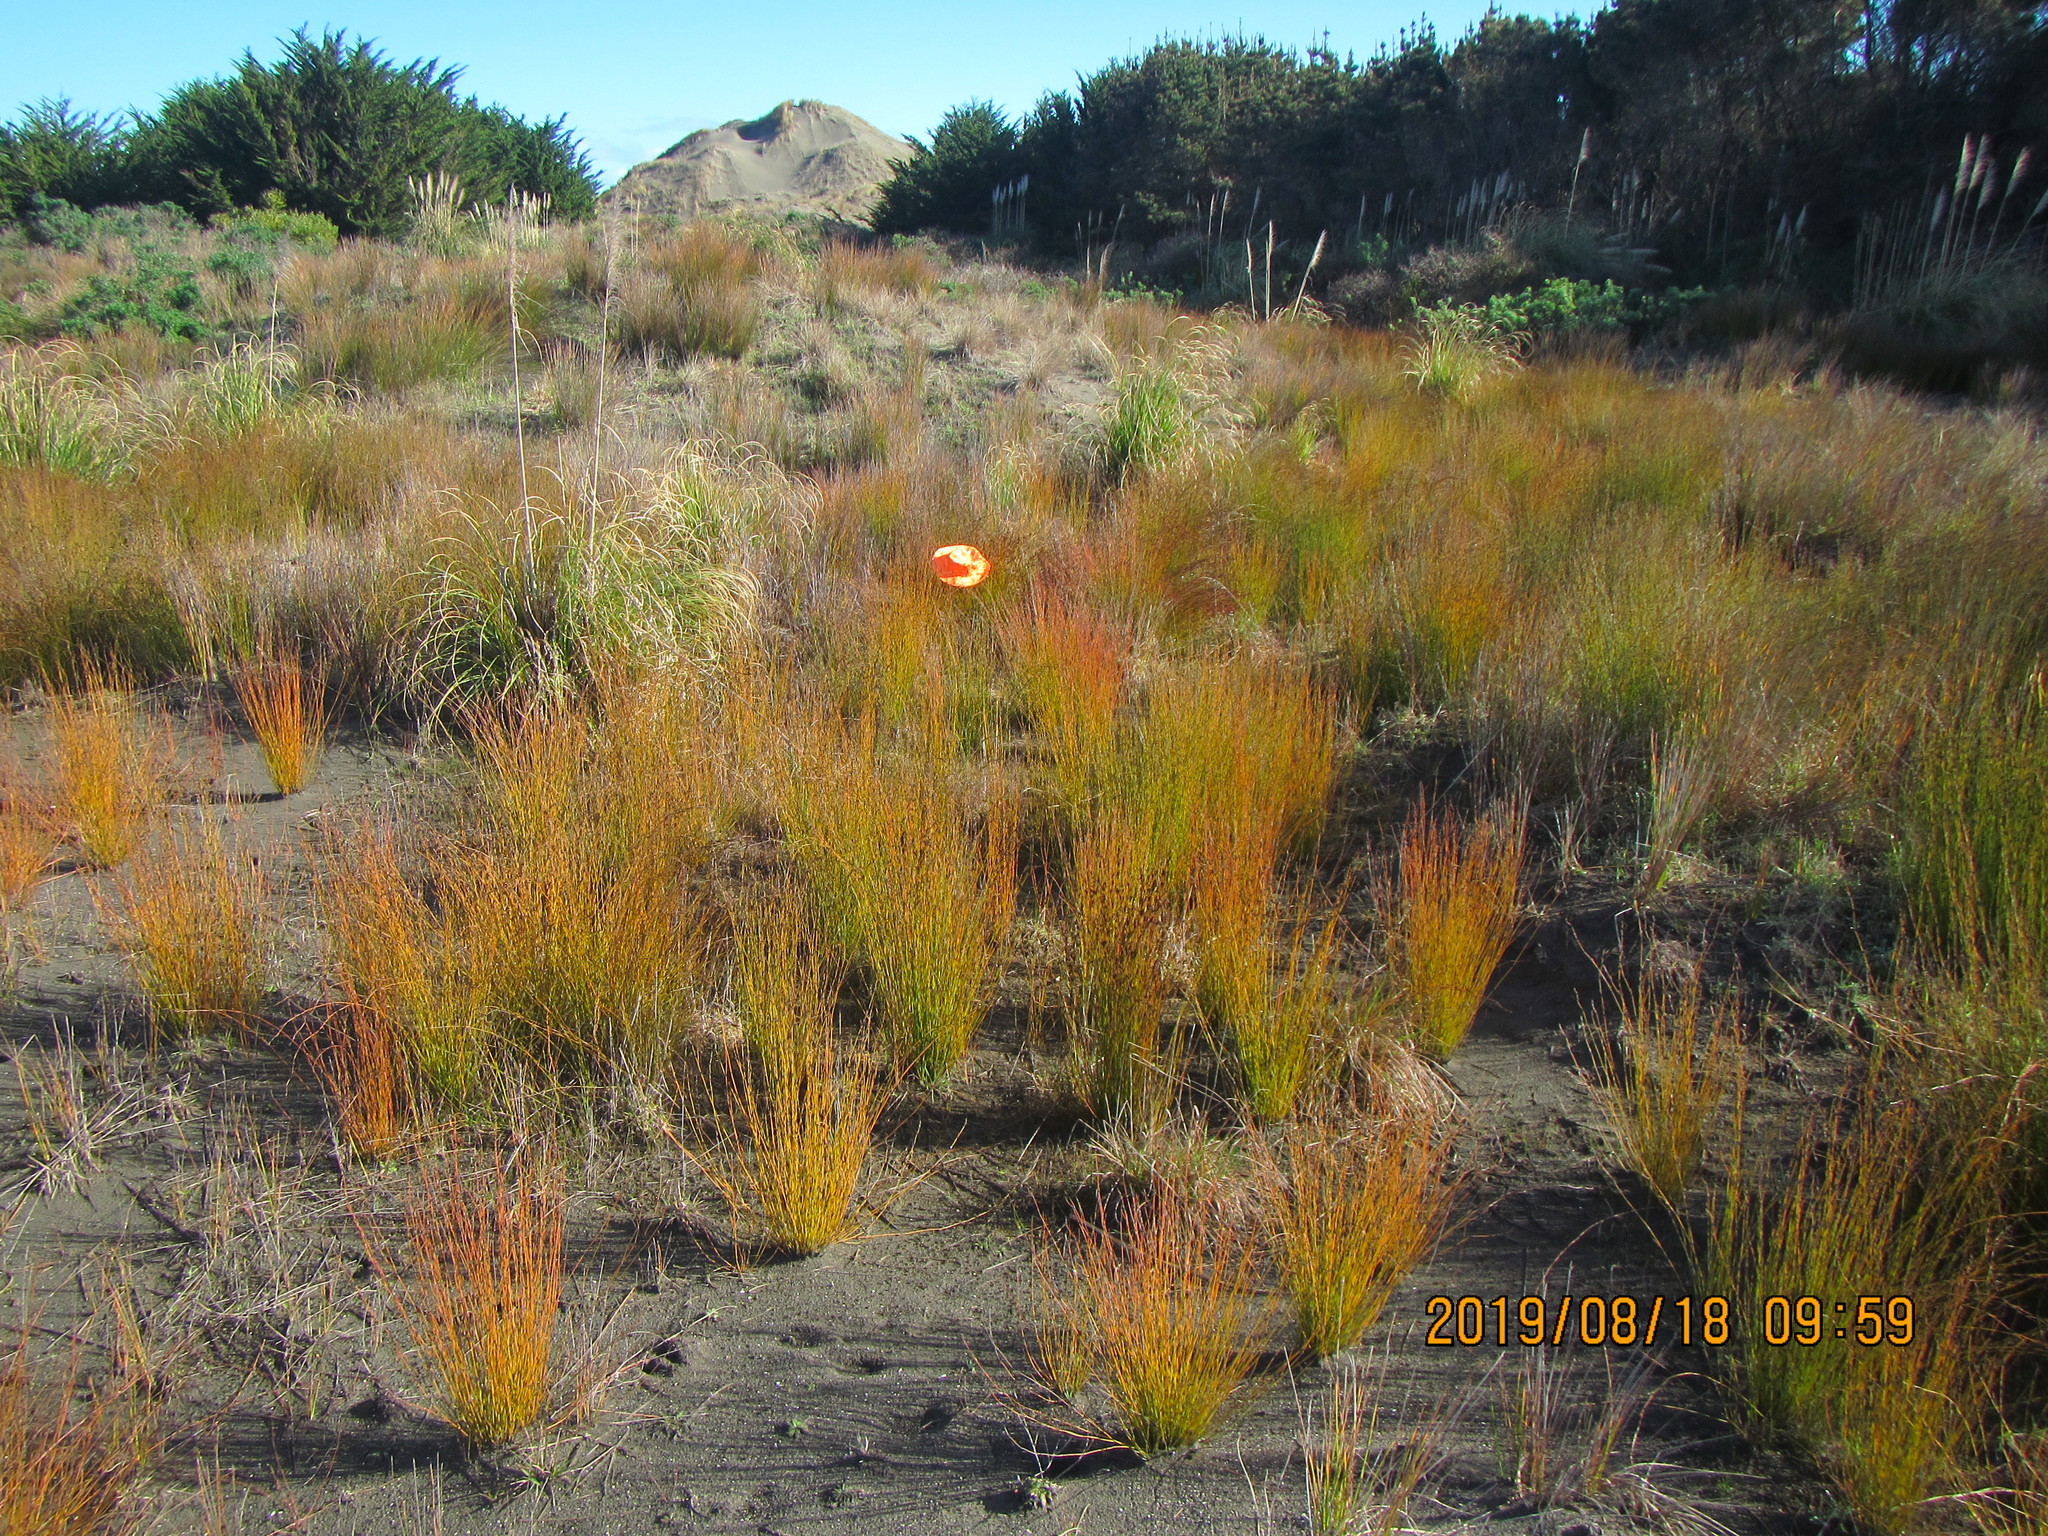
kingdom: Plantae
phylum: Tracheophyta
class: Liliopsida
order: Poales
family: Restionaceae
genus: Apodasmia
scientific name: Apodasmia similis
